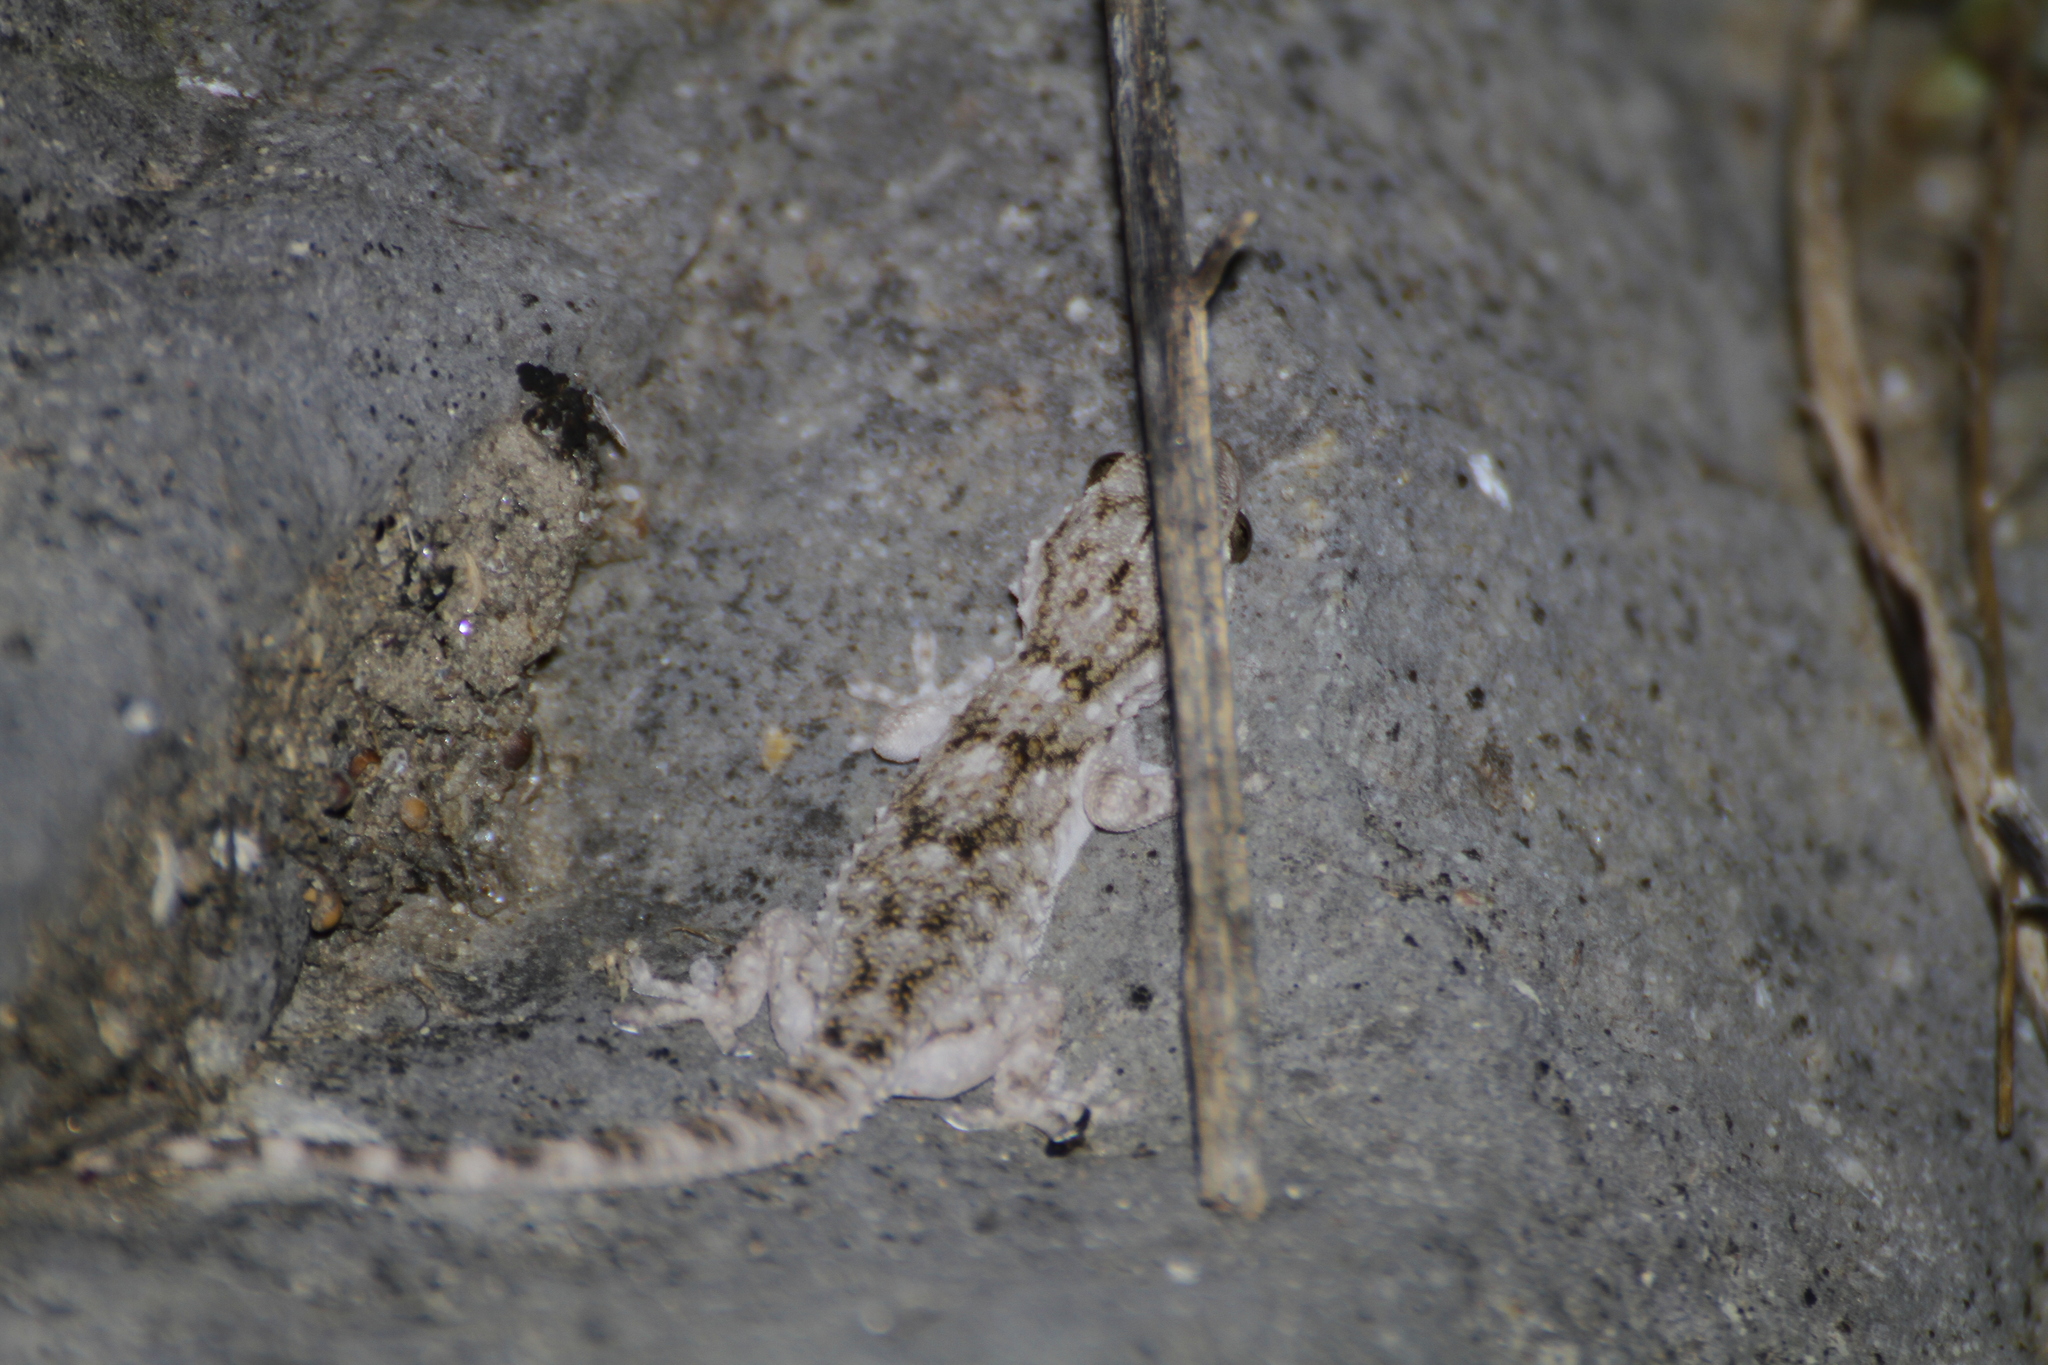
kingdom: Animalia
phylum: Chordata
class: Squamata
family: Phyllodactylidae
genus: Tarentola
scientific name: Tarentola mauritanica
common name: Moorish gecko
